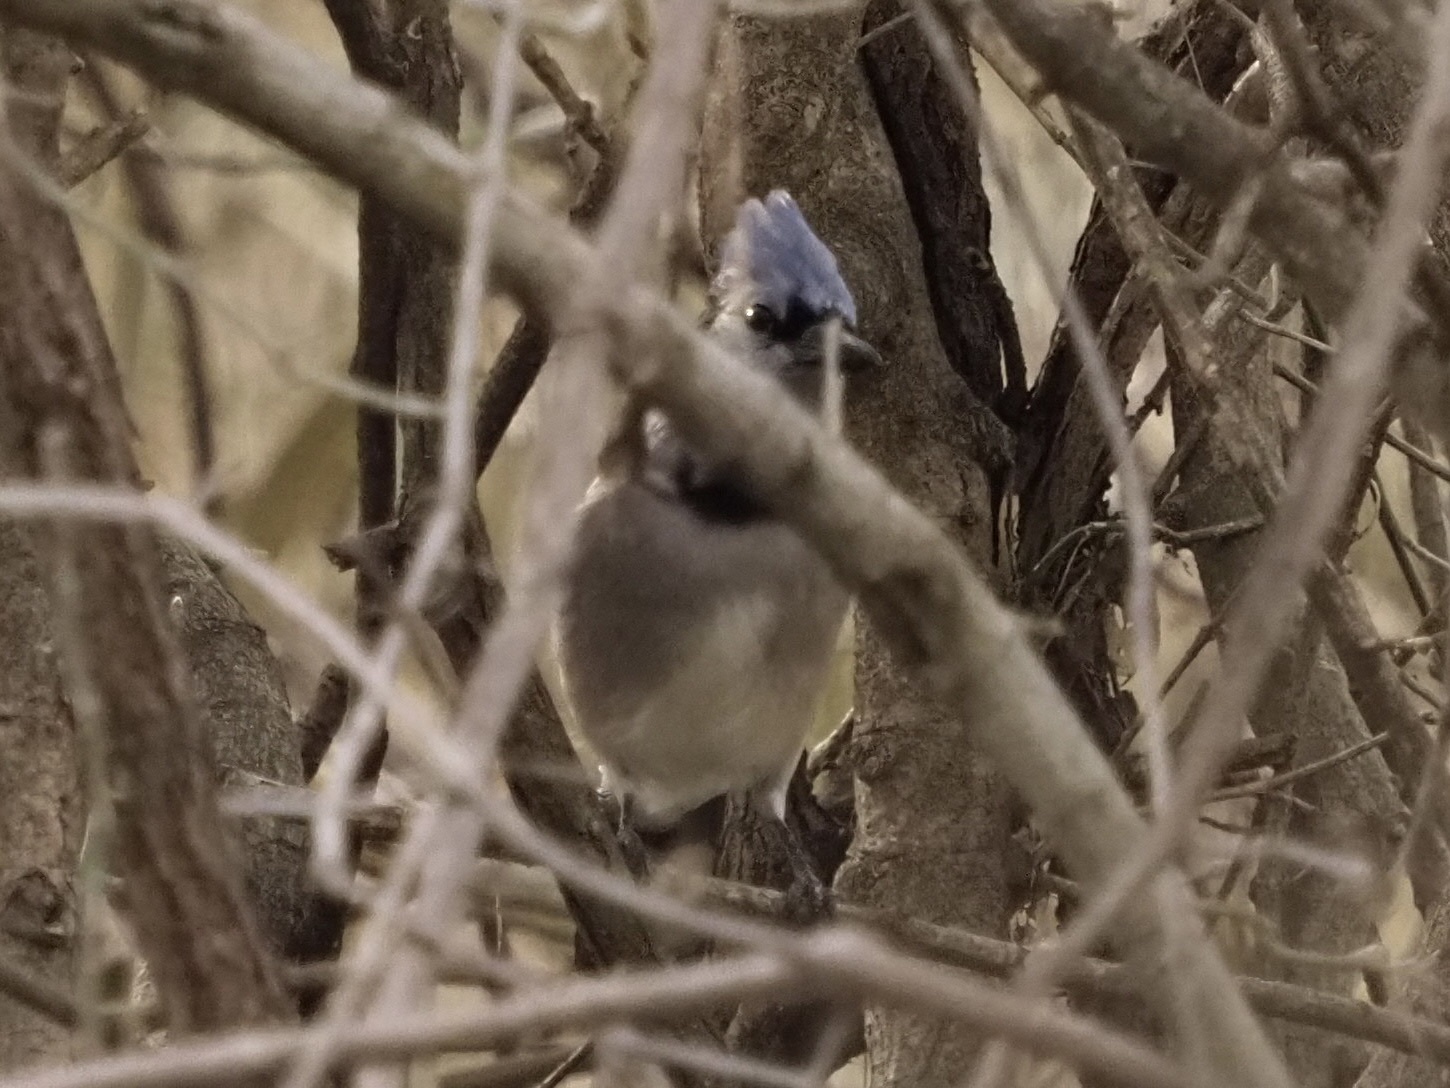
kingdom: Animalia
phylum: Chordata
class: Aves
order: Passeriformes
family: Corvidae
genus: Cyanocitta
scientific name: Cyanocitta cristata
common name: Blue jay
